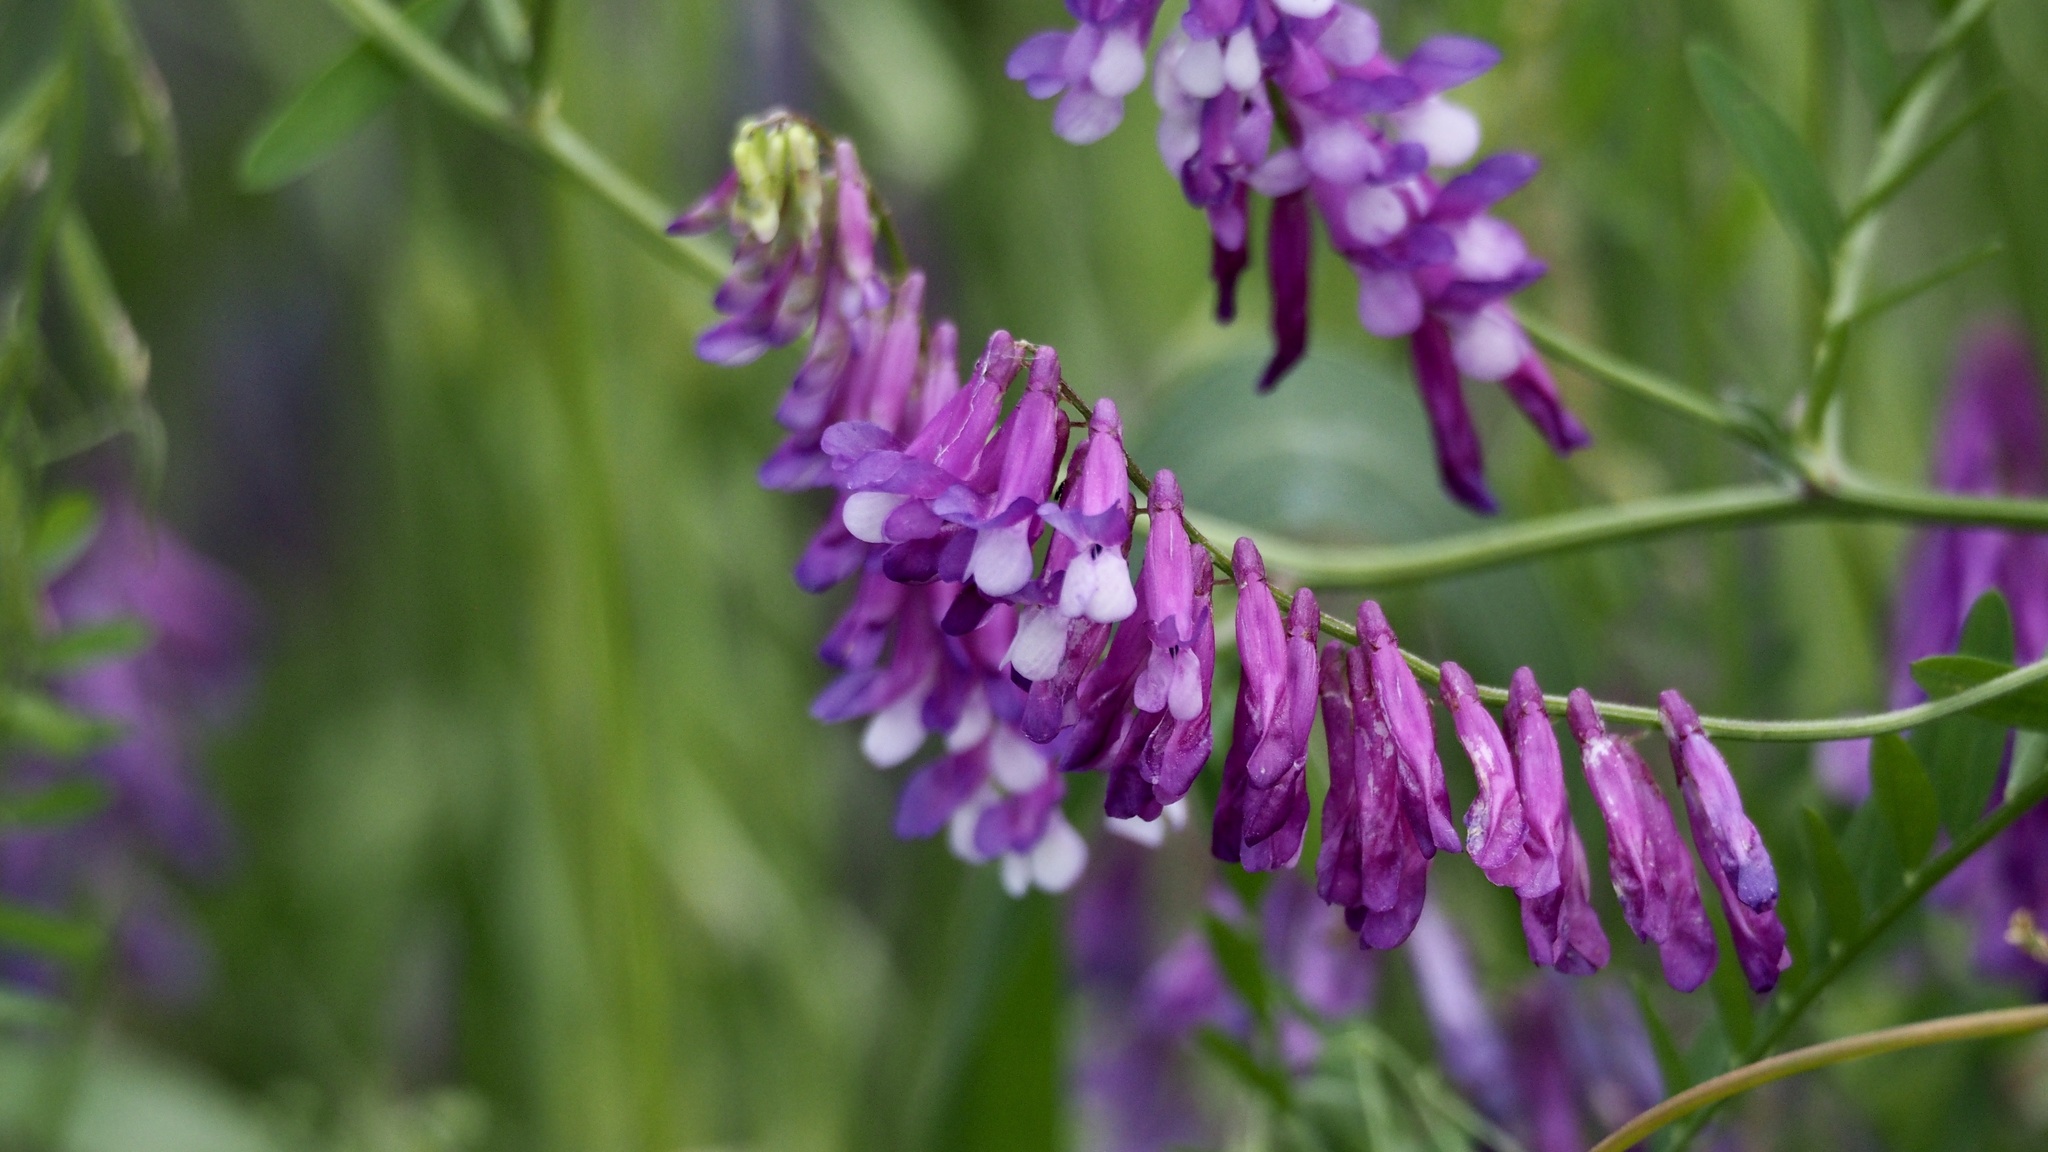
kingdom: Plantae
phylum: Tracheophyta
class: Magnoliopsida
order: Fabales
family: Fabaceae
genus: Vicia
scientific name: Vicia villosa
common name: Fodder vetch
